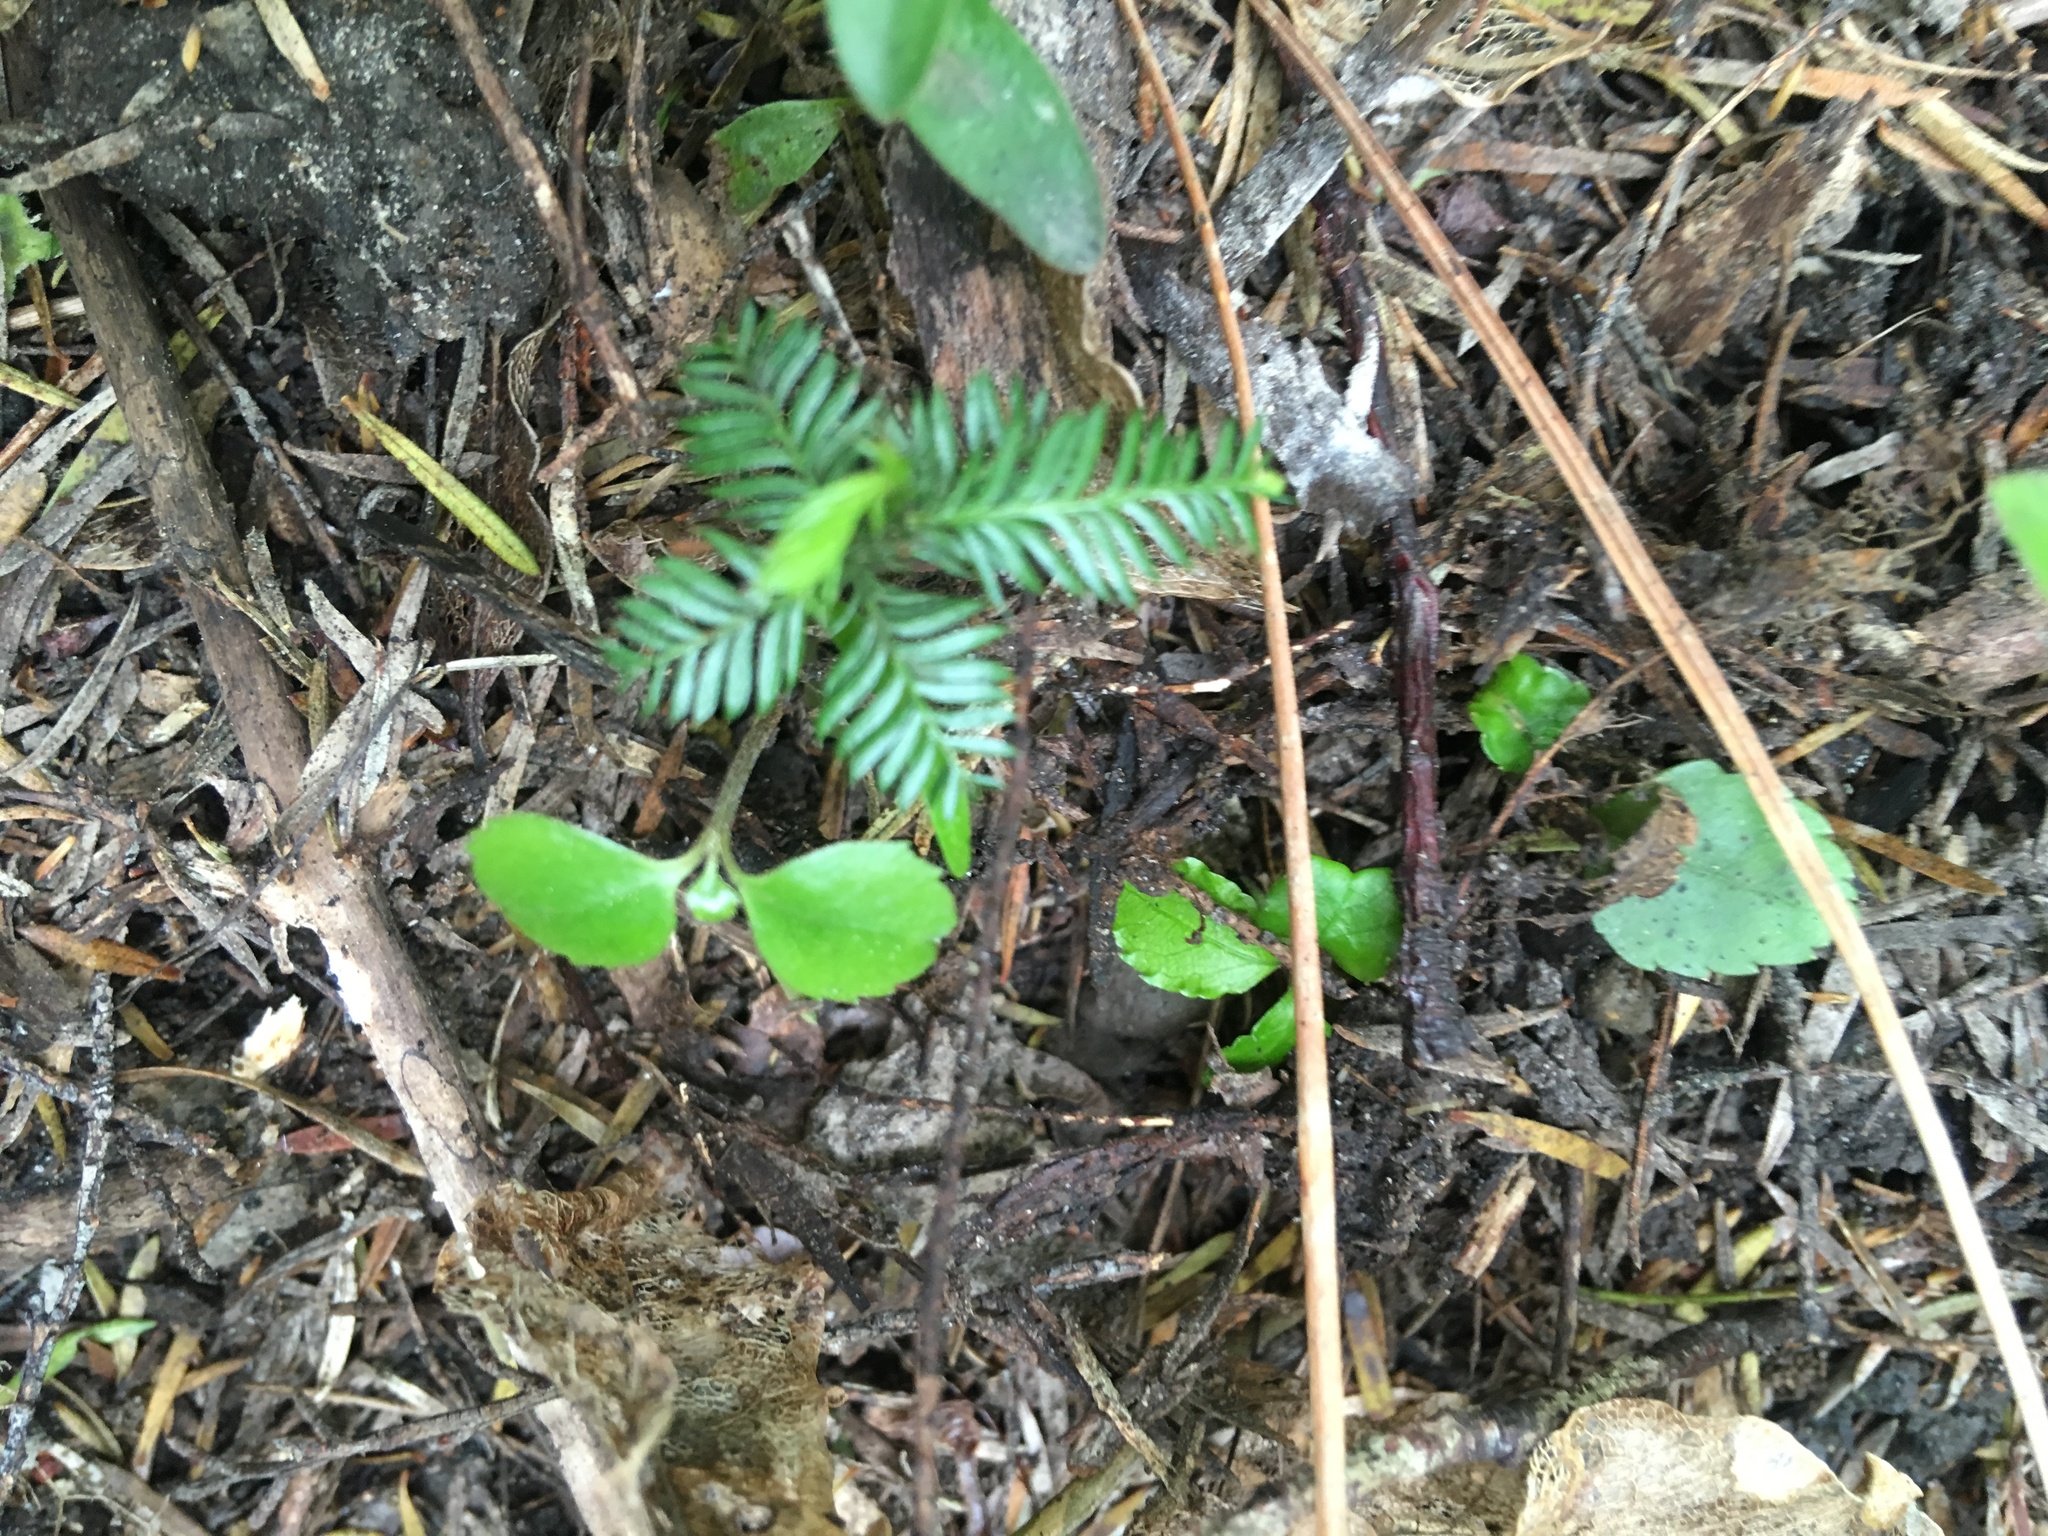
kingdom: Plantae
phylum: Tracheophyta
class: Pinopsida
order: Pinales
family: Podocarpaceae
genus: Dacrycarpus
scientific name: Dacrycarpus dacrydioides
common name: White pine
